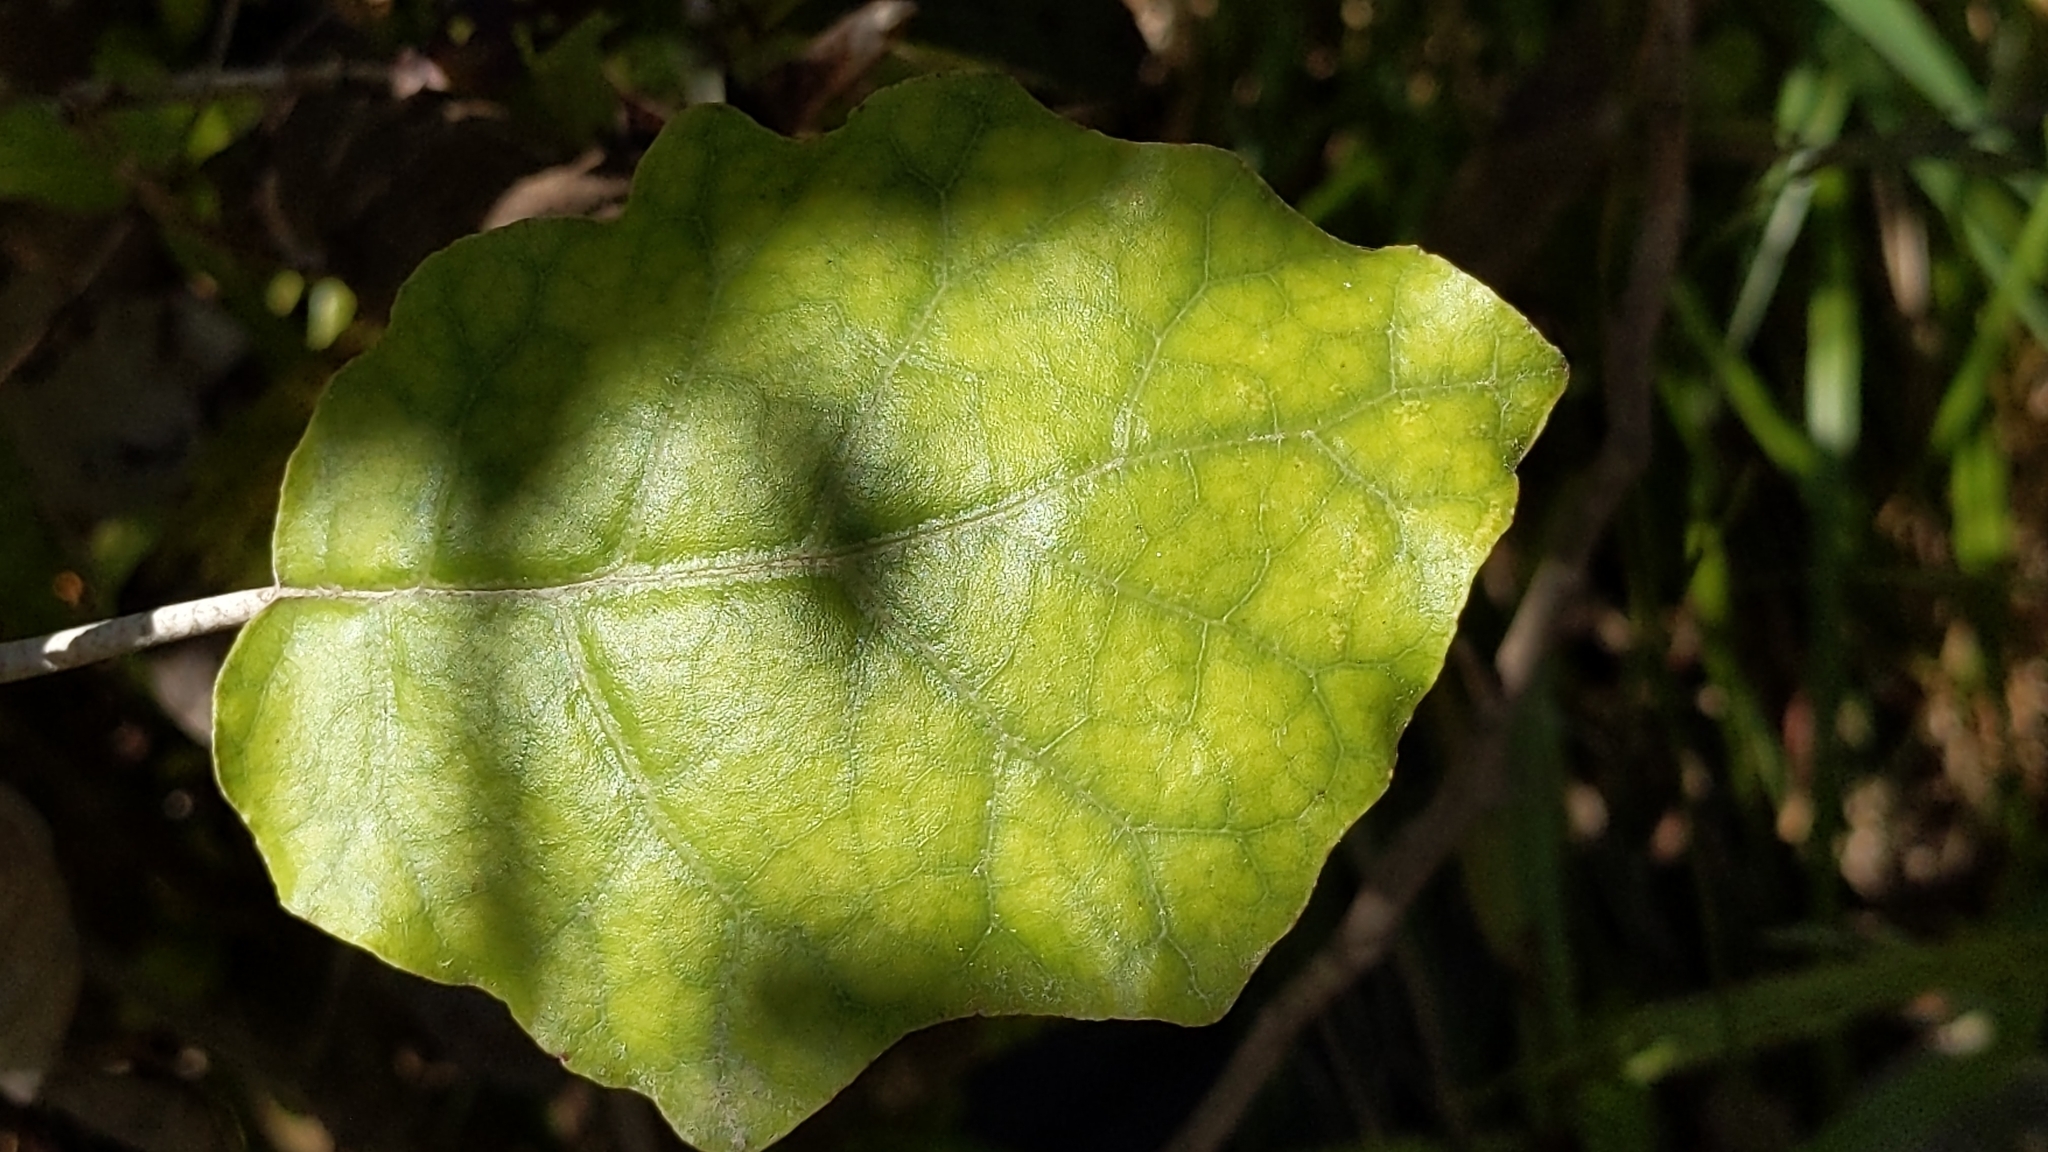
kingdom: Plantae
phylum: Tracheophyta
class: Magnoliopsida
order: Asterales
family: Asteraceae
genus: Brachyglottis
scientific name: Brachyglottis repanda
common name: Hedge ragwort
